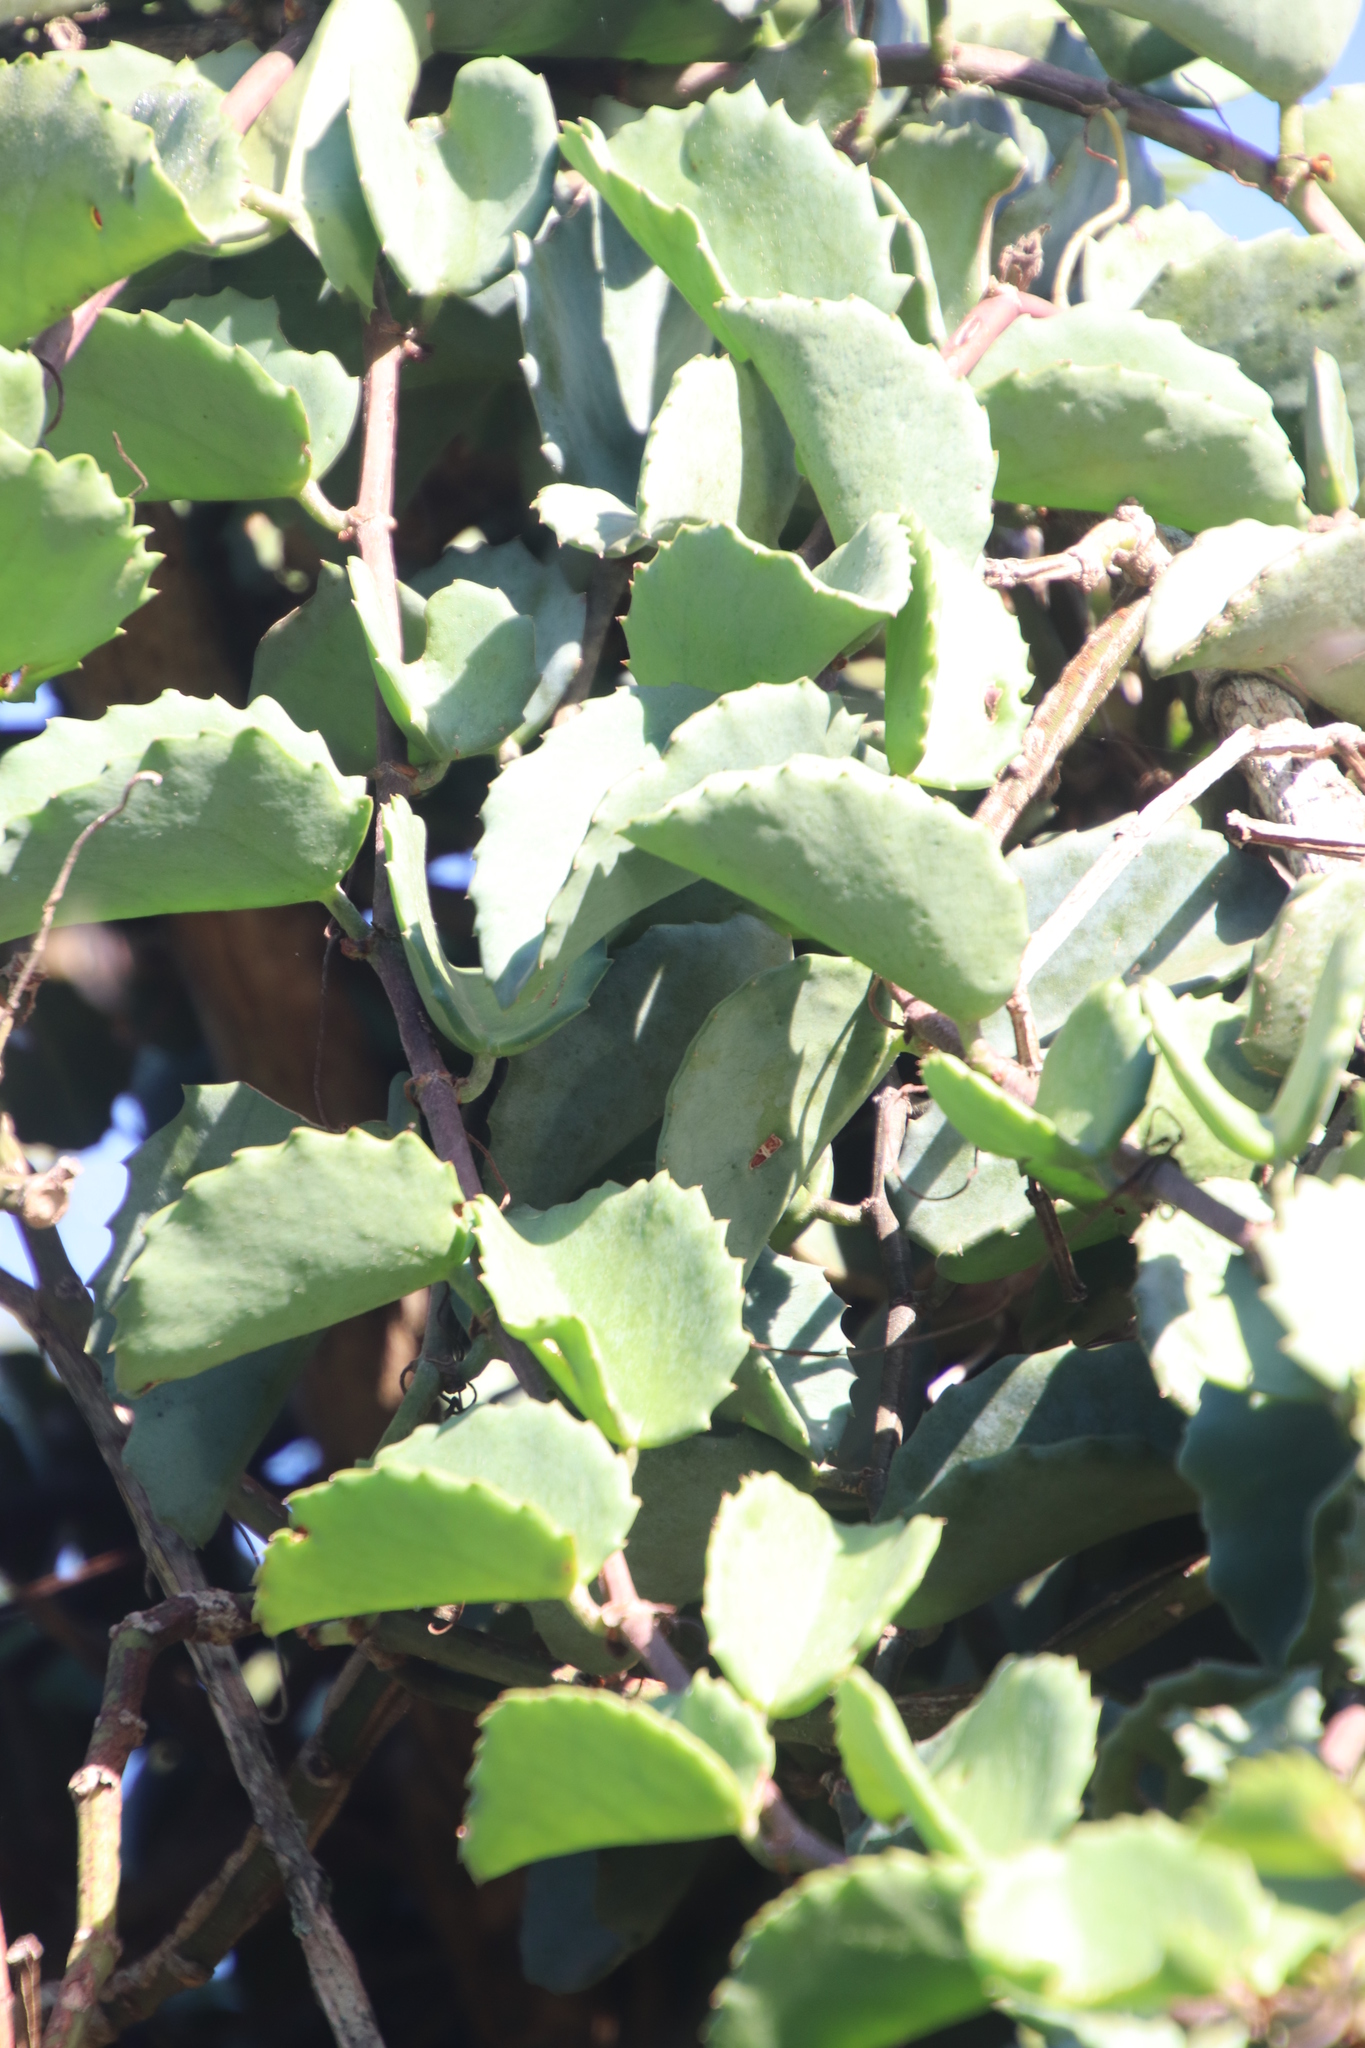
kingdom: Plantae
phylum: Tracheophyta
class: Magnoliopsida
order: Vitales
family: Vitaceae
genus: Cissus
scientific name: Cissus rotundifolia
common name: Arabian wax cissus
